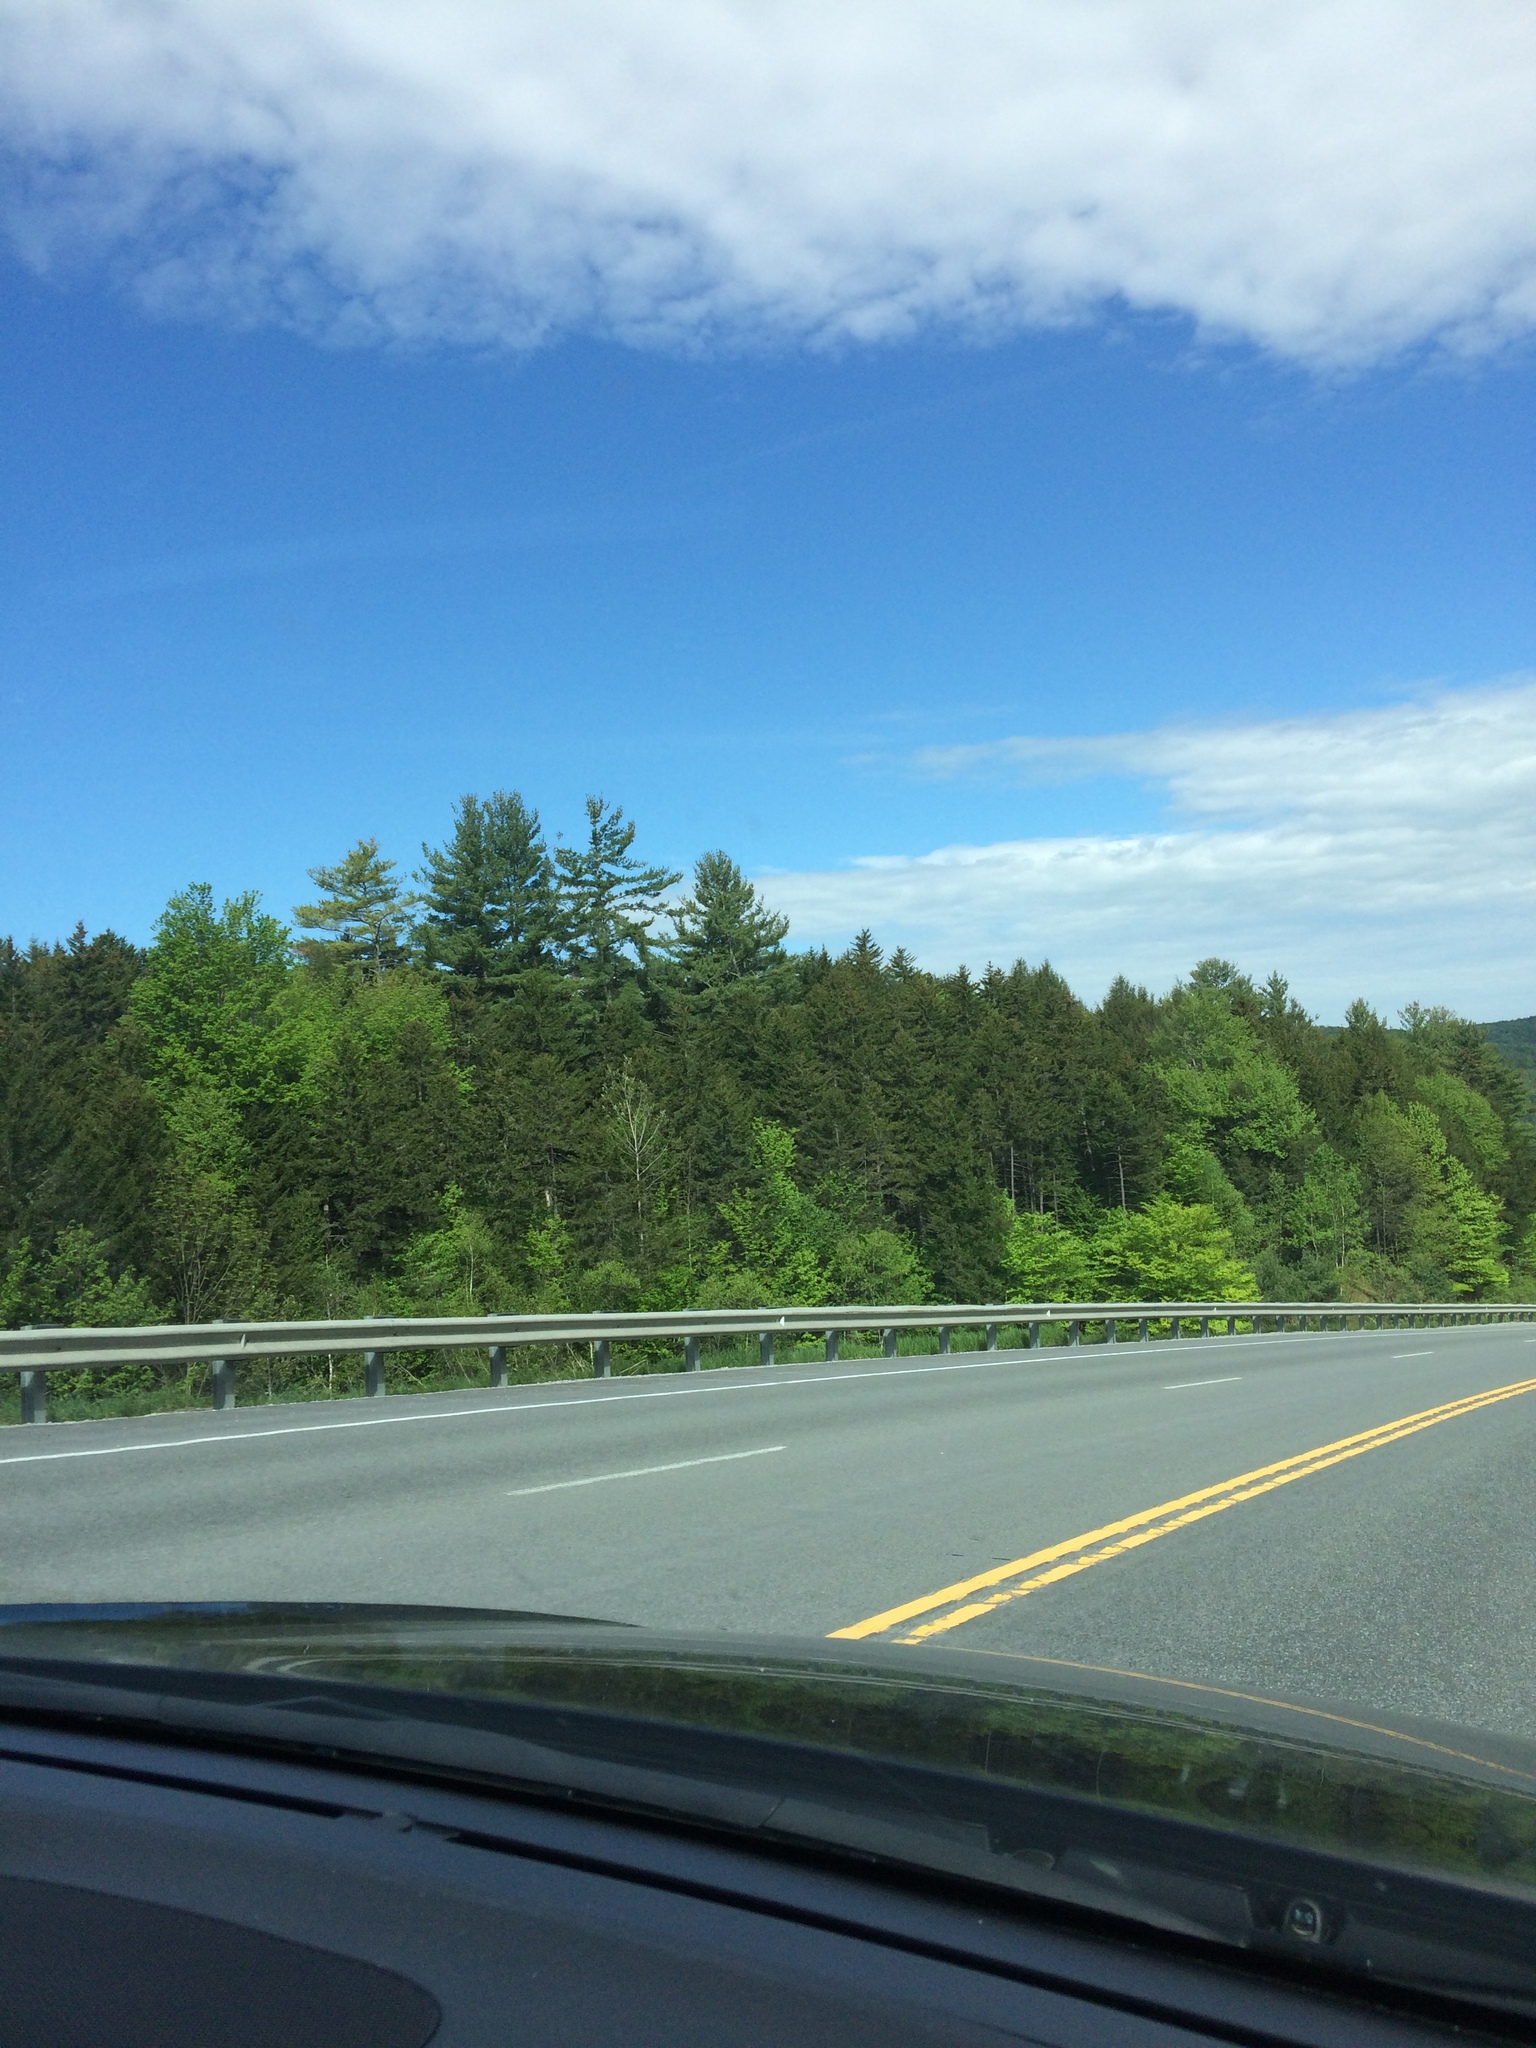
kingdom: Plantae
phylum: Tracheophyta
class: Pinopsida
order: Pinales
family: Pinaceae
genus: Pinus
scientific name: Pinus strobus
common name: Weymouth pine
